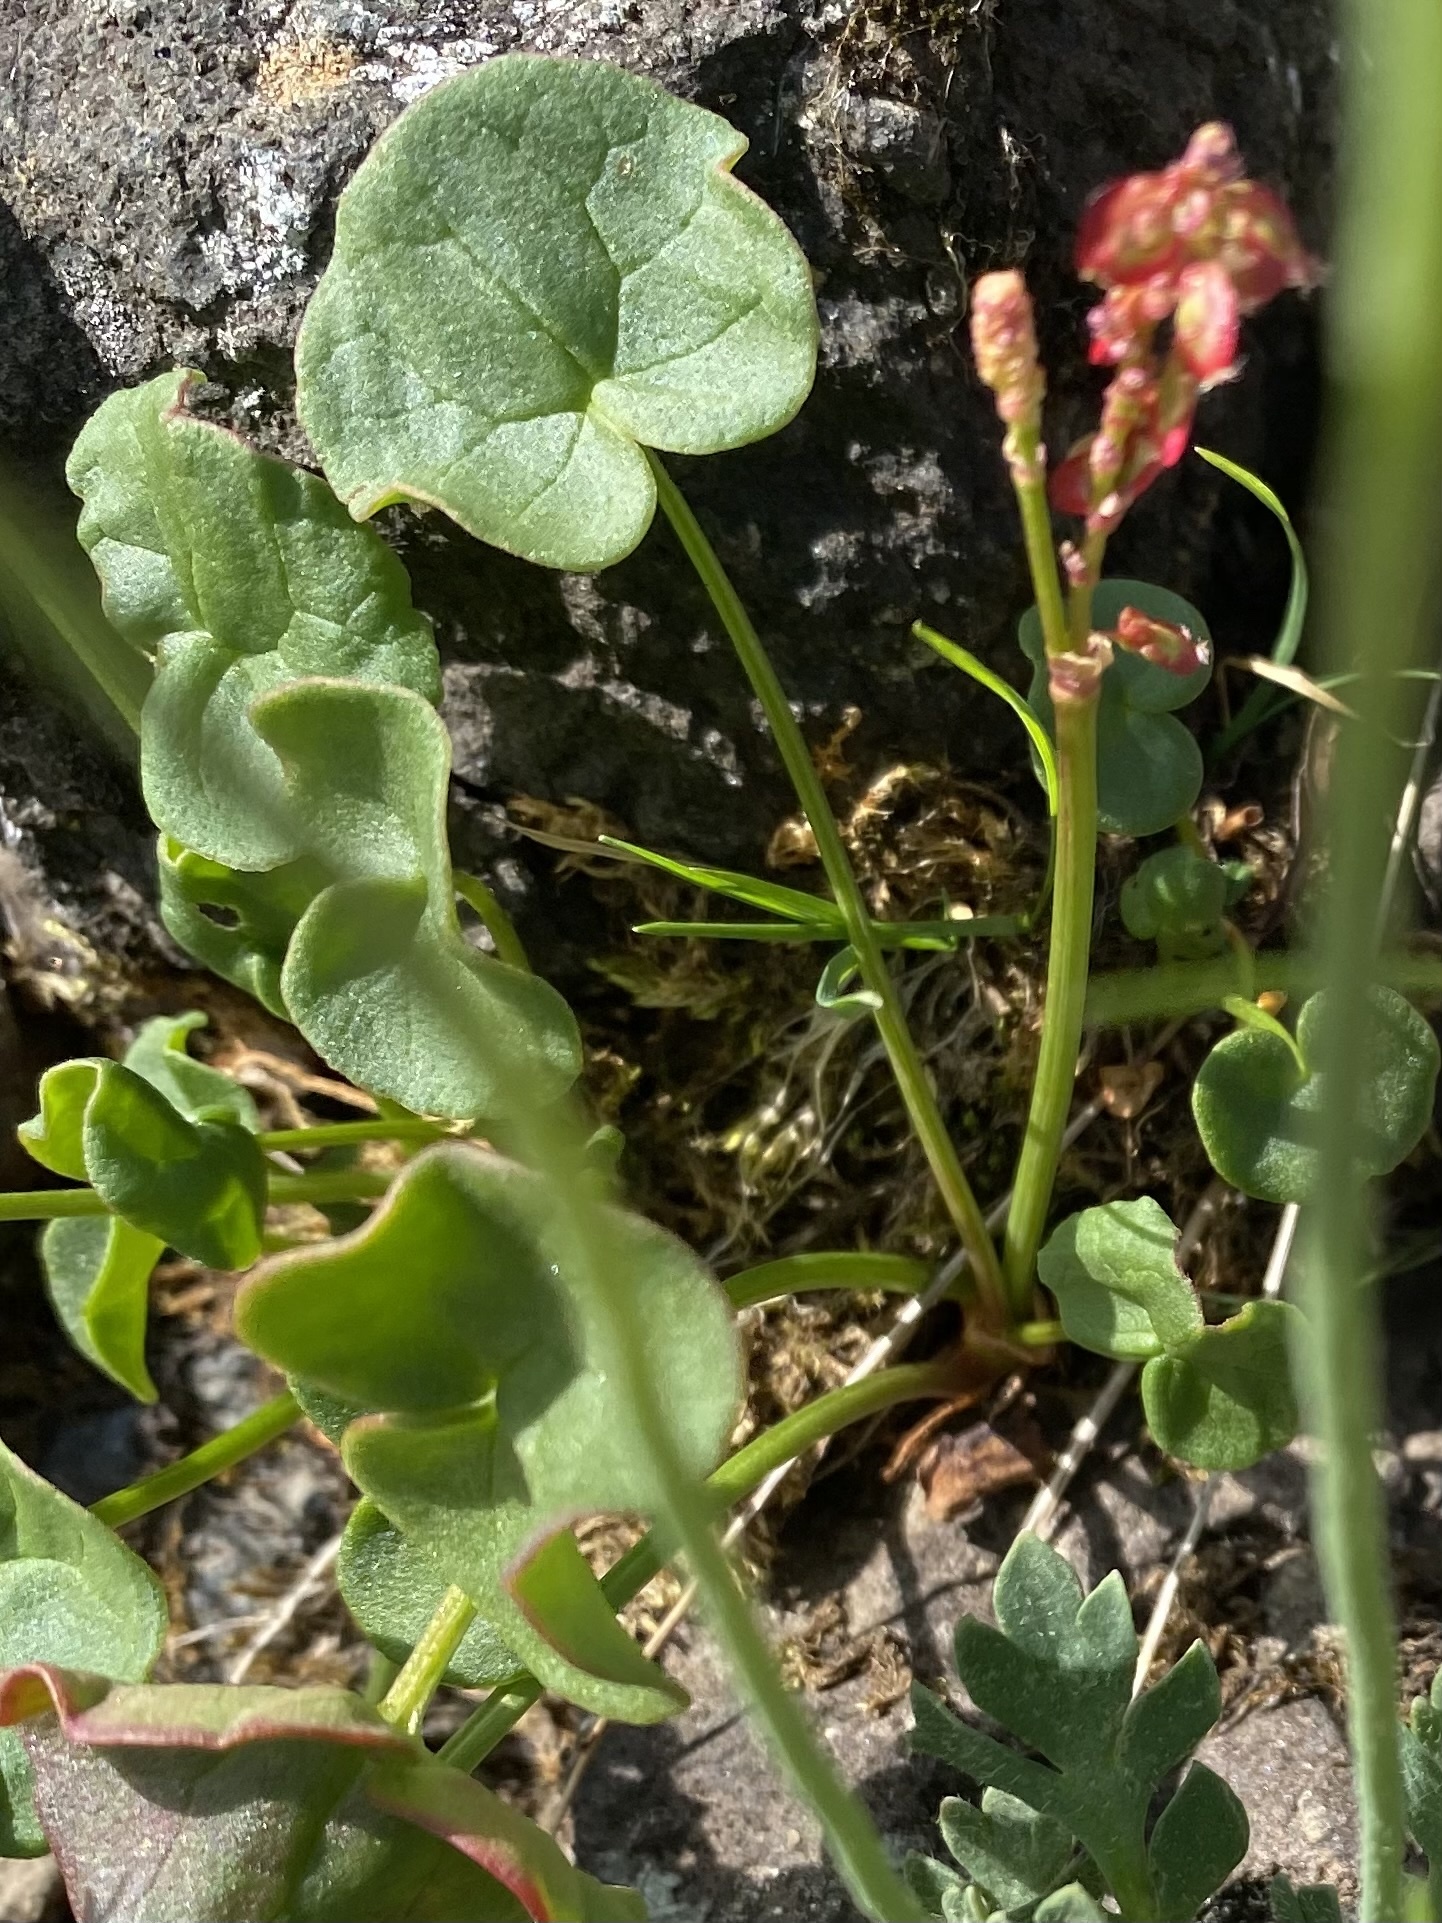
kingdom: Plantae
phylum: Tracheophyta
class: Magnoliopsida
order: Caryophyllales
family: Polygonaceae
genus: Oxyria
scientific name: Oxyria digyna
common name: Alpine mountain-sorrel
